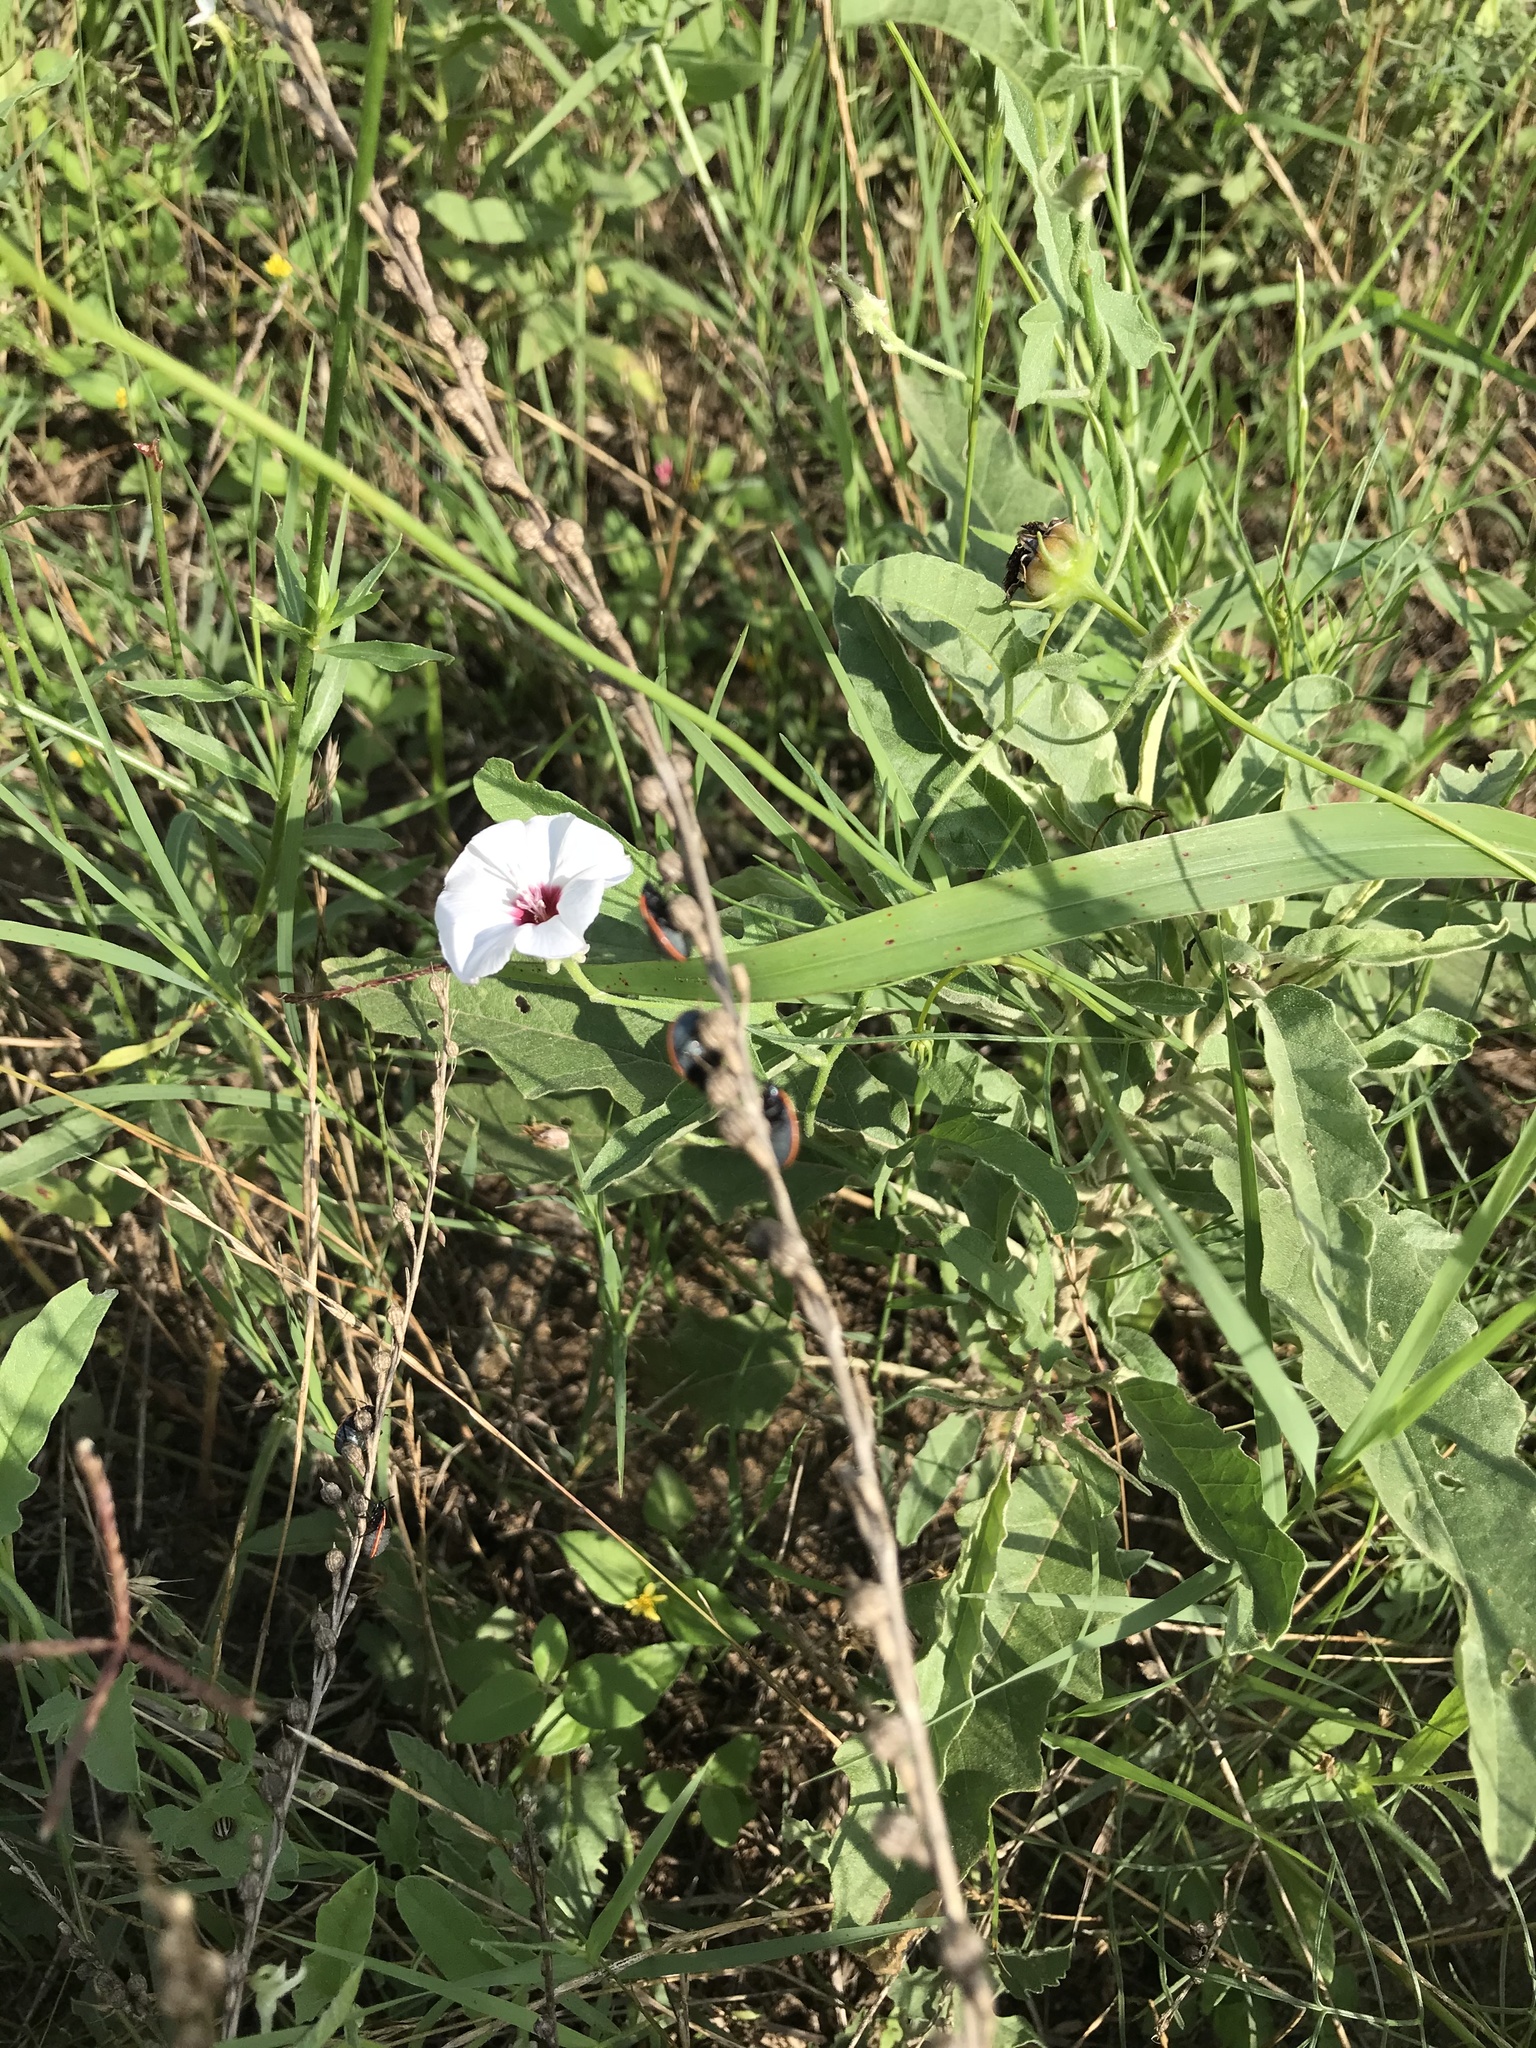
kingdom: Plantae
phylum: Tracheophyta
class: Magnoliopsida
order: Solanales
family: Convolvulaceae
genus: Convolvulus
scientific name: Convolvulus equitans
